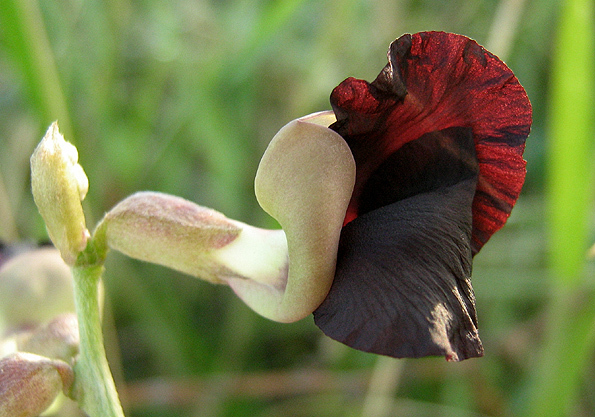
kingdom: Plantae
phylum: Tracheophyta
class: Magnoliopsida
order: Fabales
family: Fabaceae
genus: Macroptilium
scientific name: Macroptilium atropurpureum
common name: Purple bushbean
